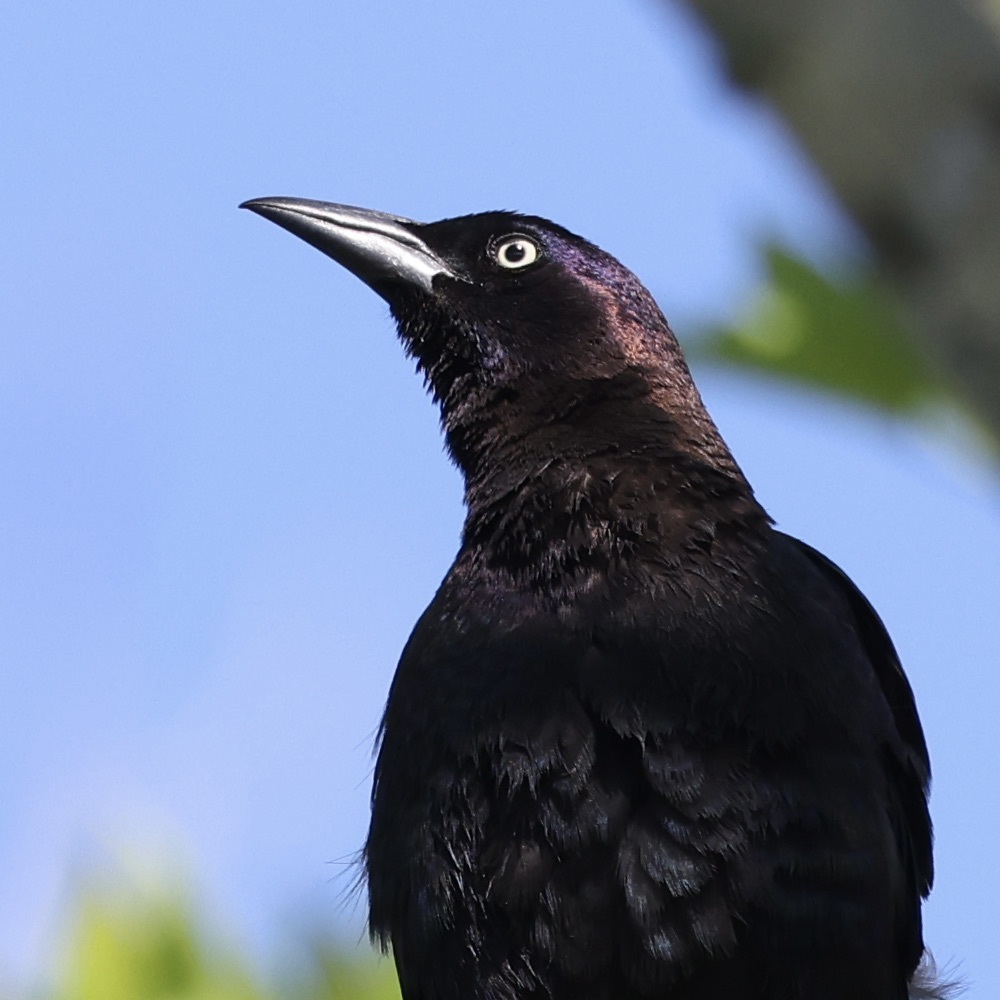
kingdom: Animalia
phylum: Chordata
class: Aves
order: Passeriformes
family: Icteridae
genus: Quiscalus
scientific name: Quiscalus quiscula
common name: Common grackle
